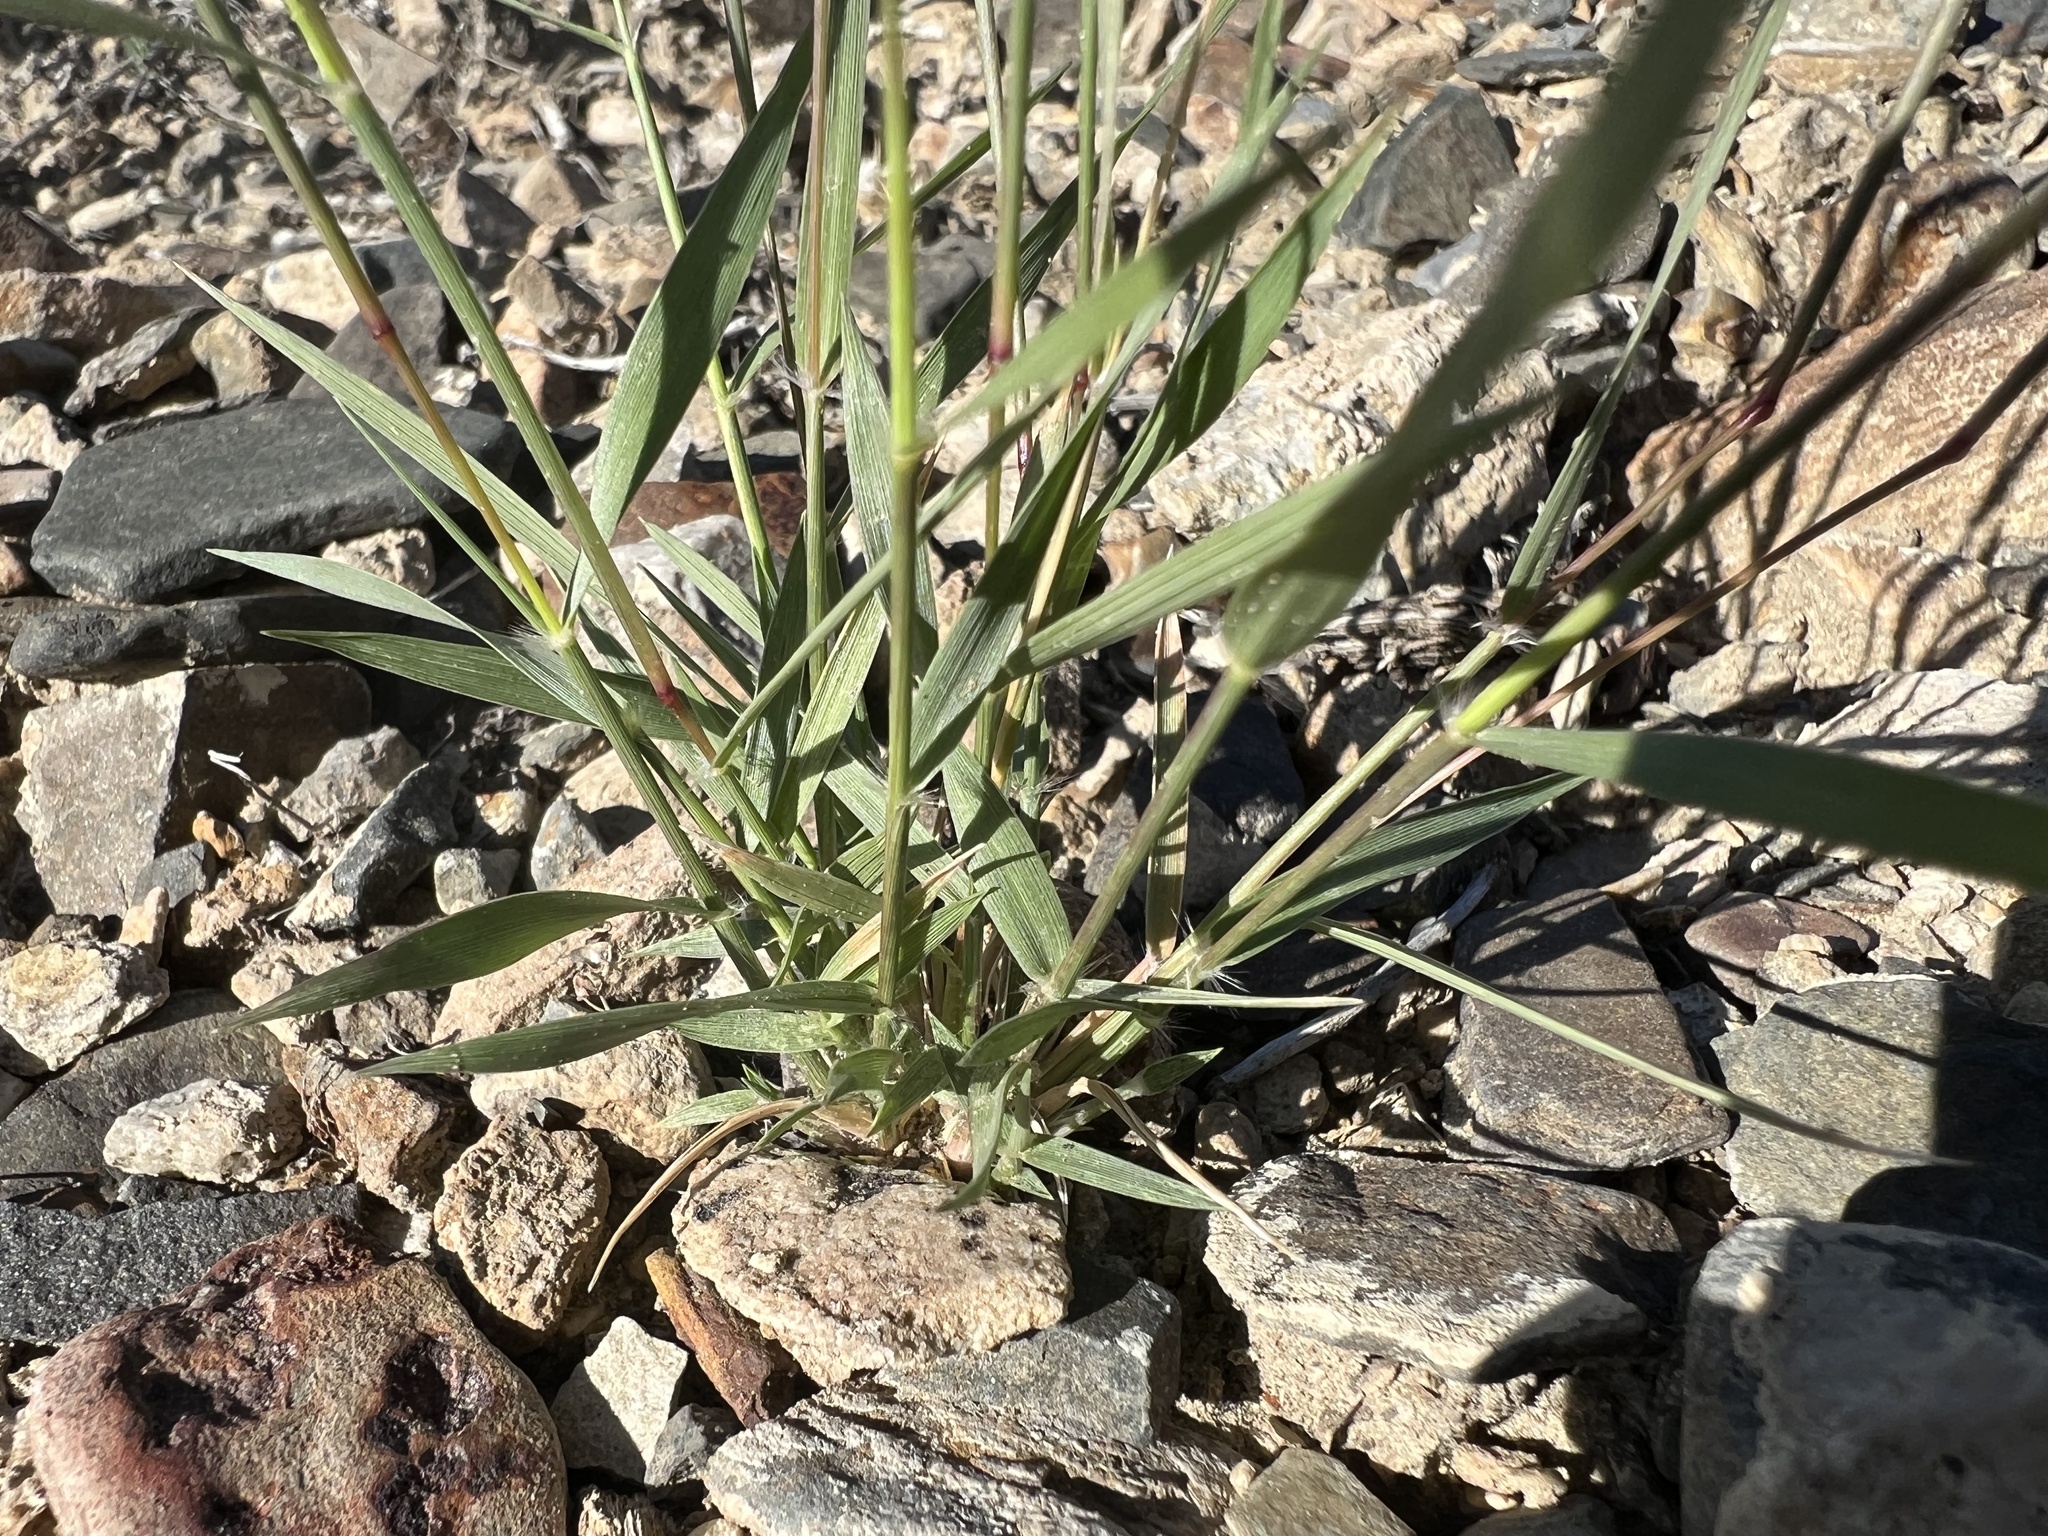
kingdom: Plantae
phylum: Tracheophyta
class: Liliopsida
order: Poales
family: Poaceae
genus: Sporobolus
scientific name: Sporobolus cryptandrus
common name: Sand dropseed
